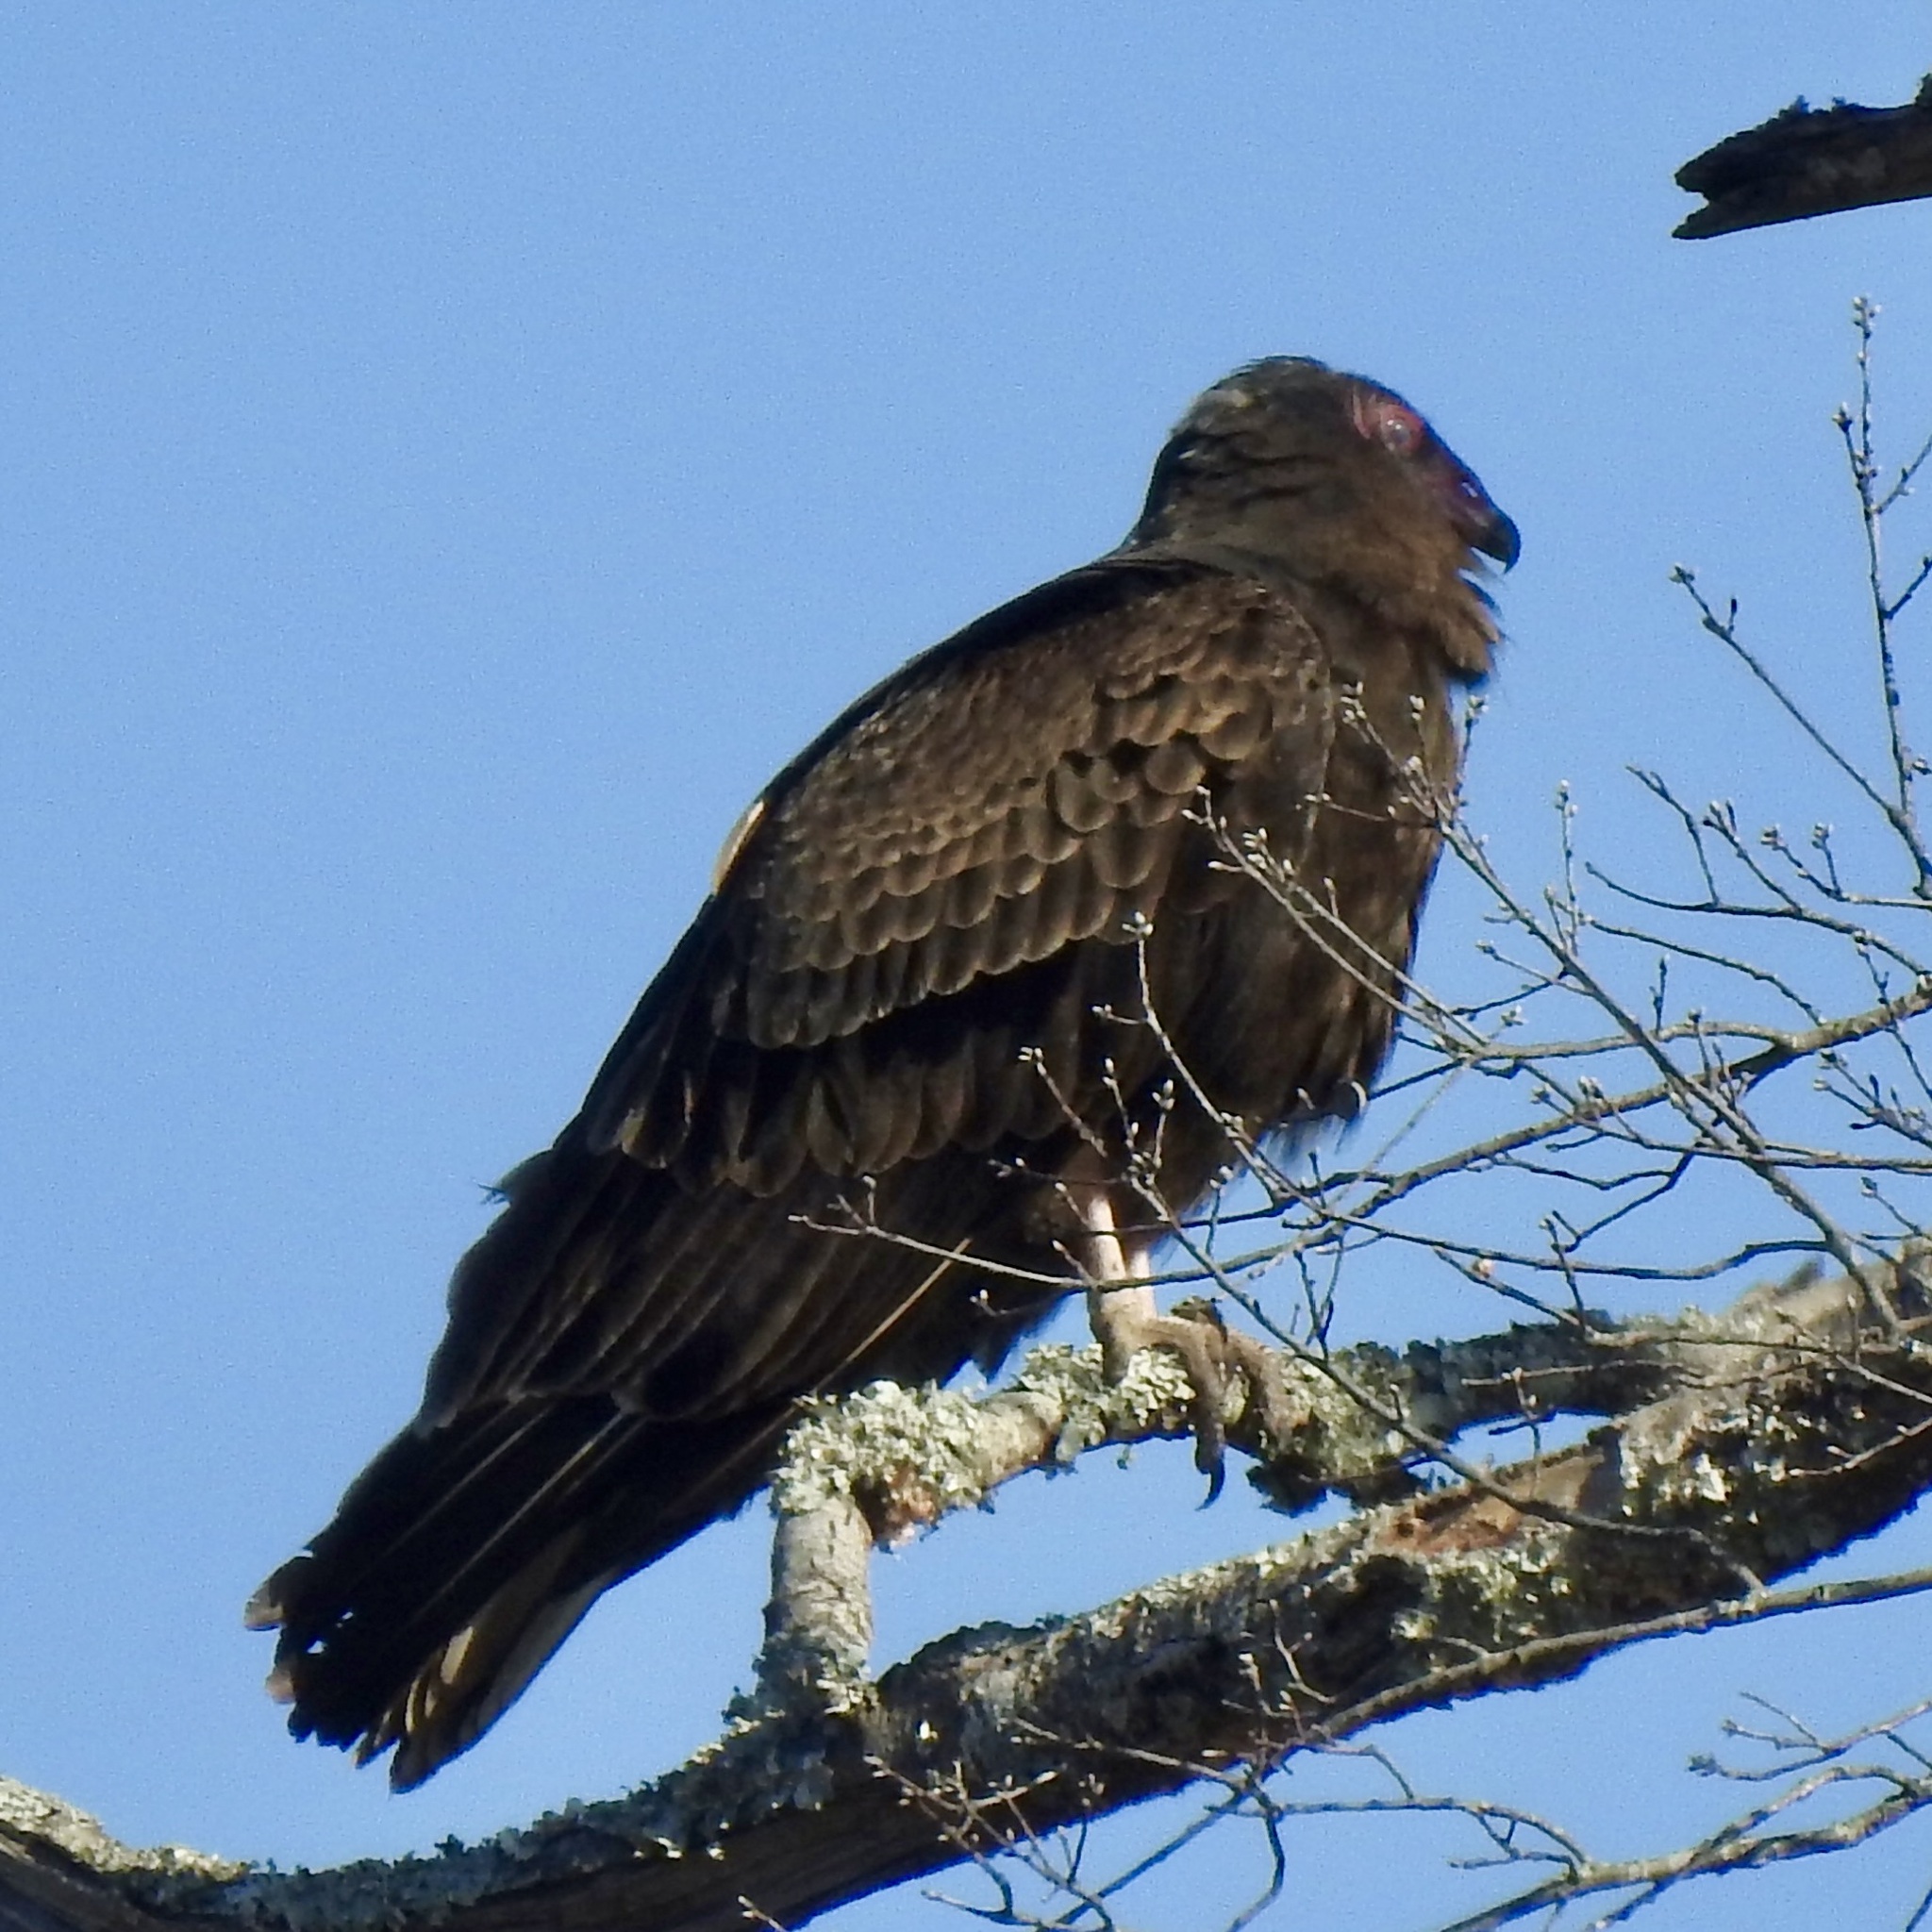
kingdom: Animalia
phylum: Chordata
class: Aves
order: Accipitriformes
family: Cathartidae
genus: Cathartes
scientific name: Cathartes aura
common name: Turkey vulture
